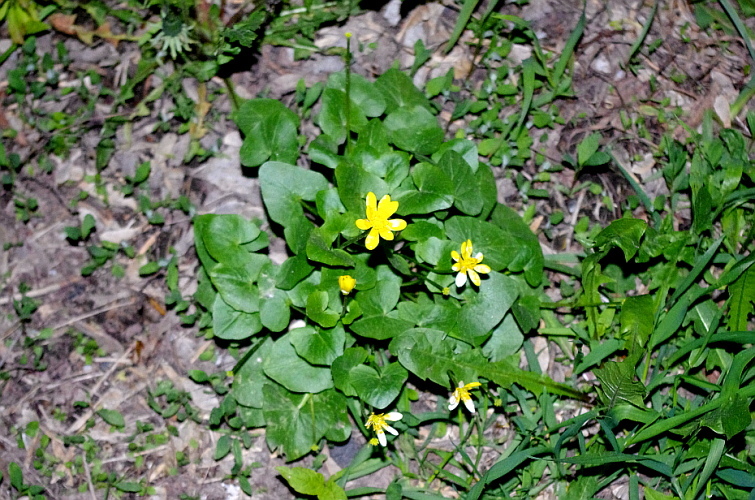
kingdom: Plantae
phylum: Tracheophyta
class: Magnoliopsida
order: Ranunculales
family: Ranunculaceae
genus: Ficaria
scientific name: Ficaria verna
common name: Lesser celandine
